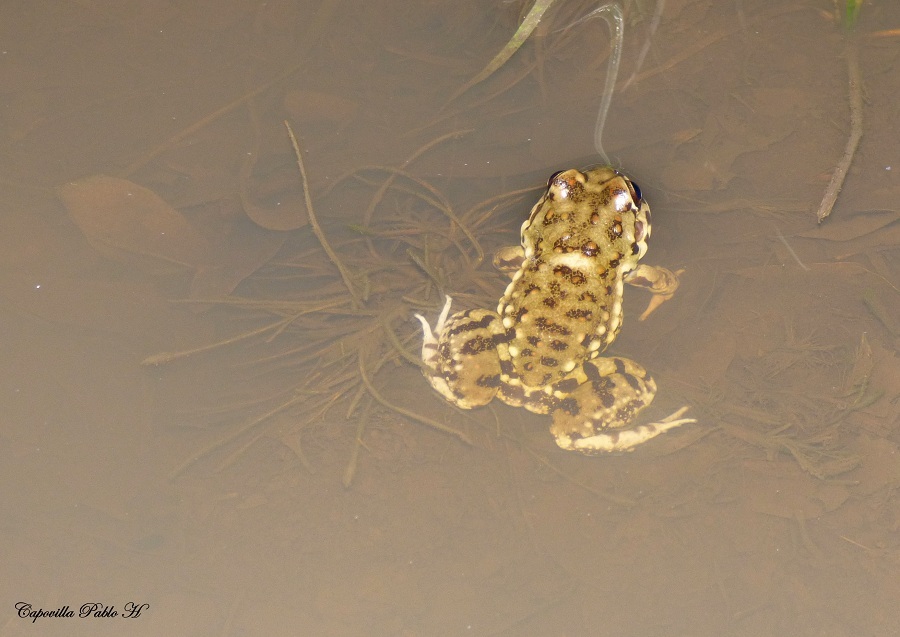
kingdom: Animalia
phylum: Chordata
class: Amphibia
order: Anura
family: Leptodactylidae
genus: Leptodactylus
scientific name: Leptodactylus bufonius
